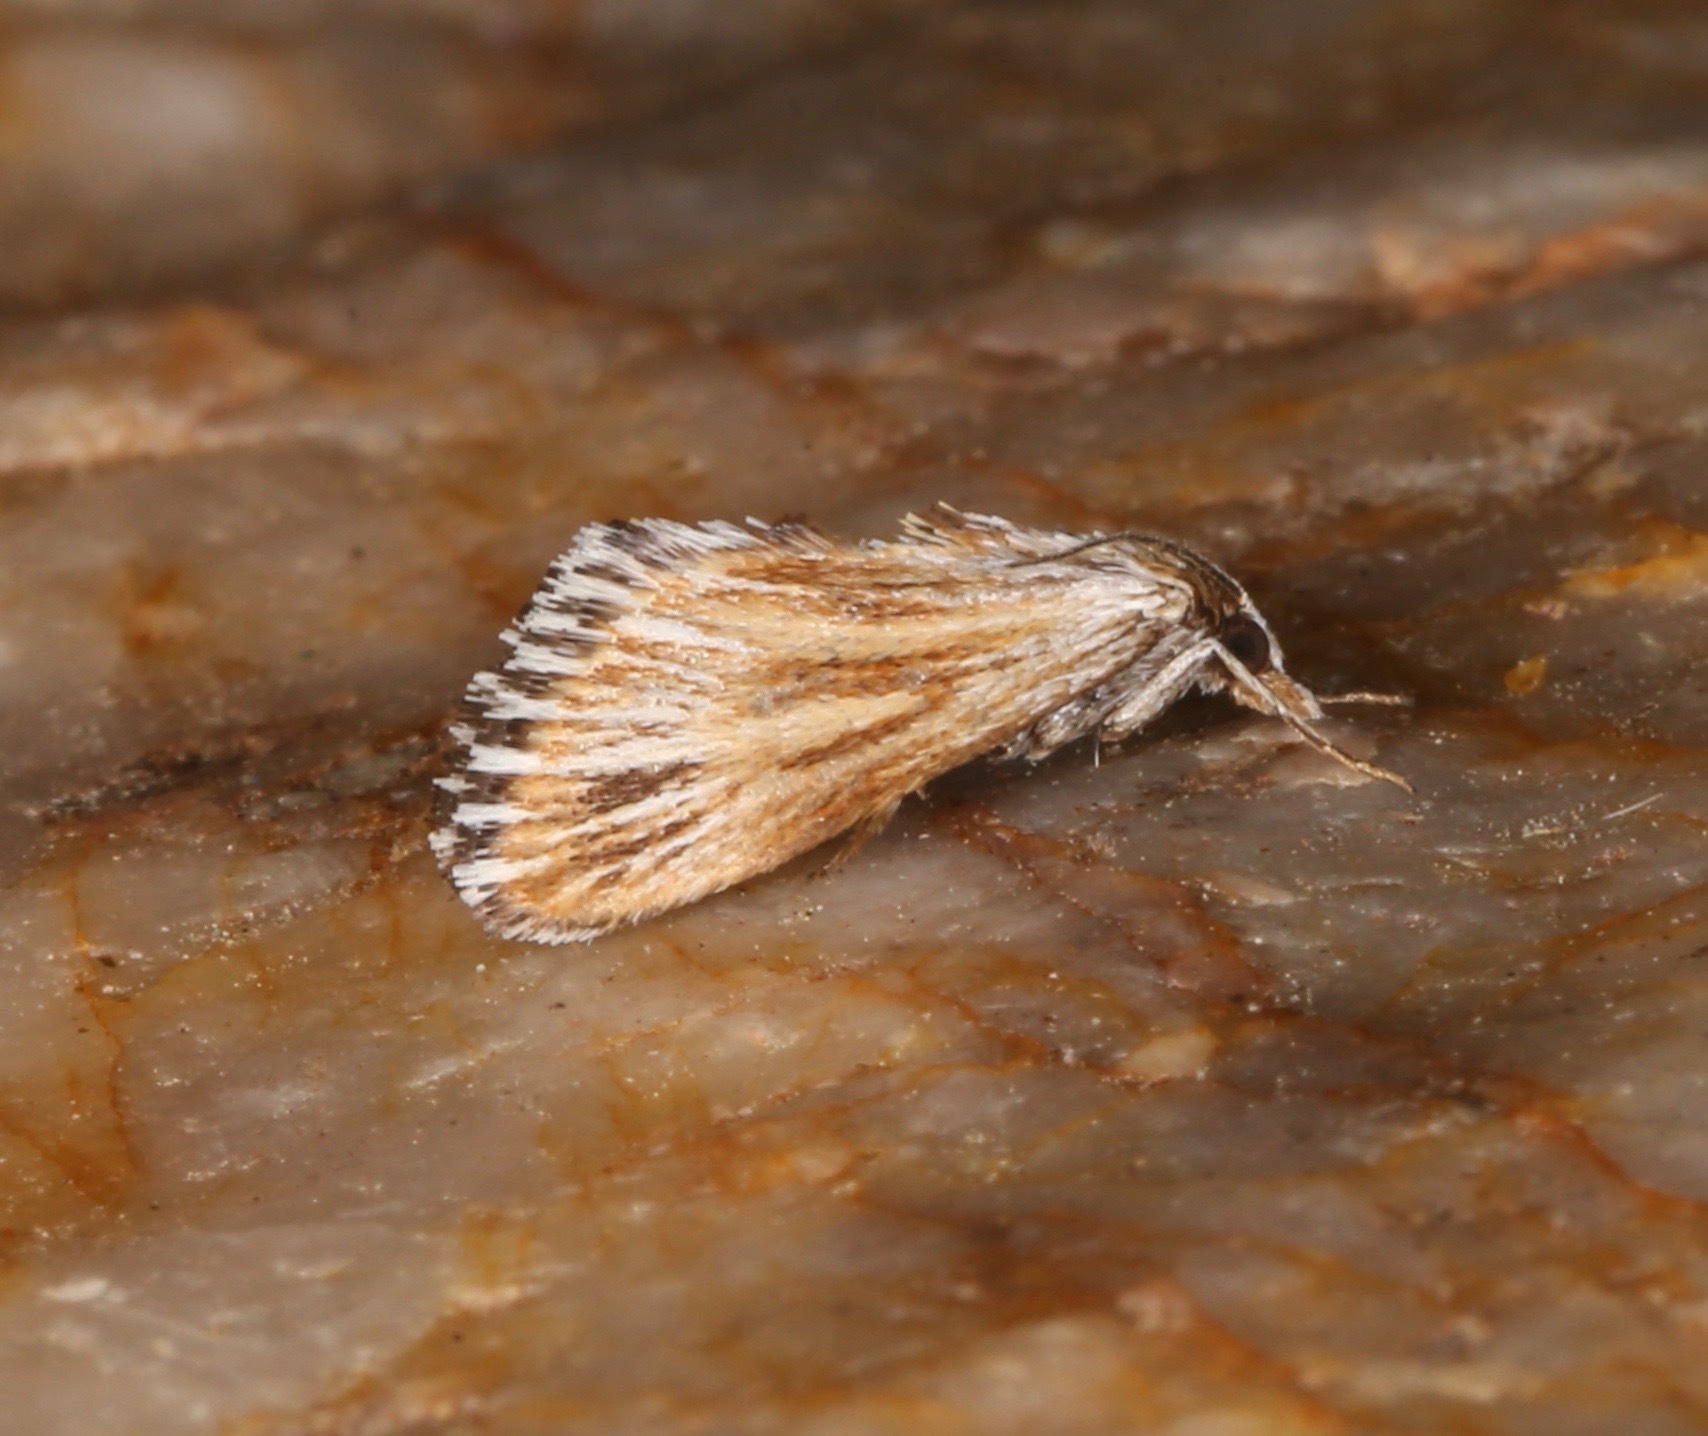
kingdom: Animalia
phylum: Arthropoda
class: Insecta
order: Lepidoptera
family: Crambidae
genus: Edia
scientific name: Edia minutissima
